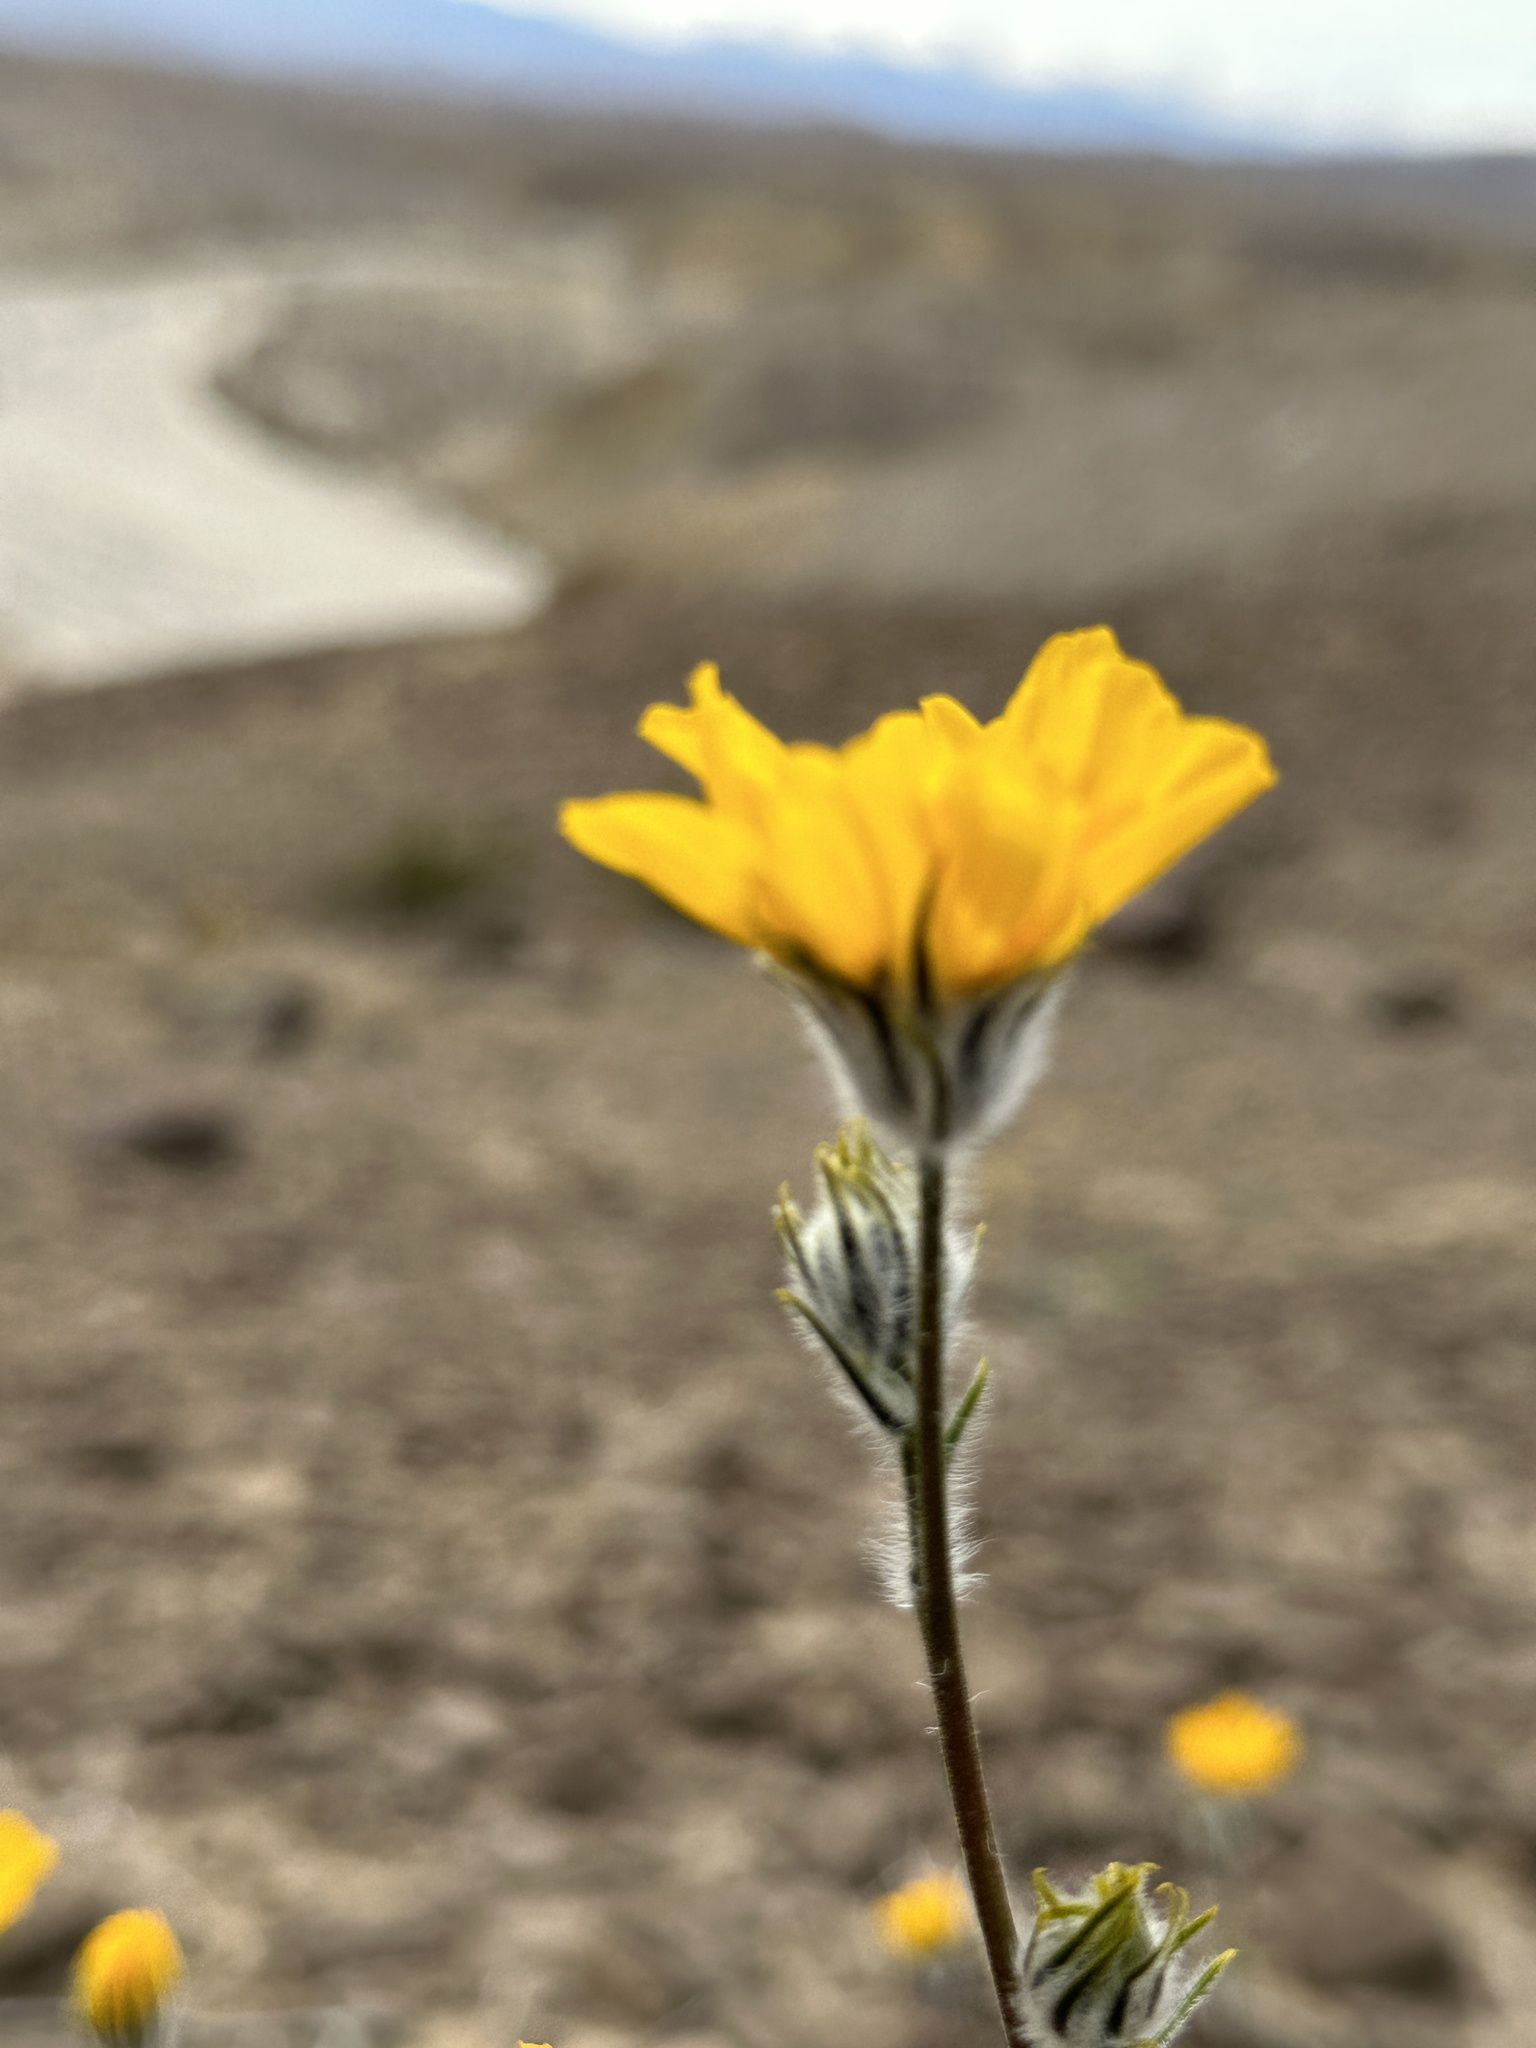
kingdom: Plantae
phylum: Tracheophyta
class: Magnoliopsida
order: Asterales
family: Asteraceae
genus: Geraea
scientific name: Geraea canescens
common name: Desert-gold
